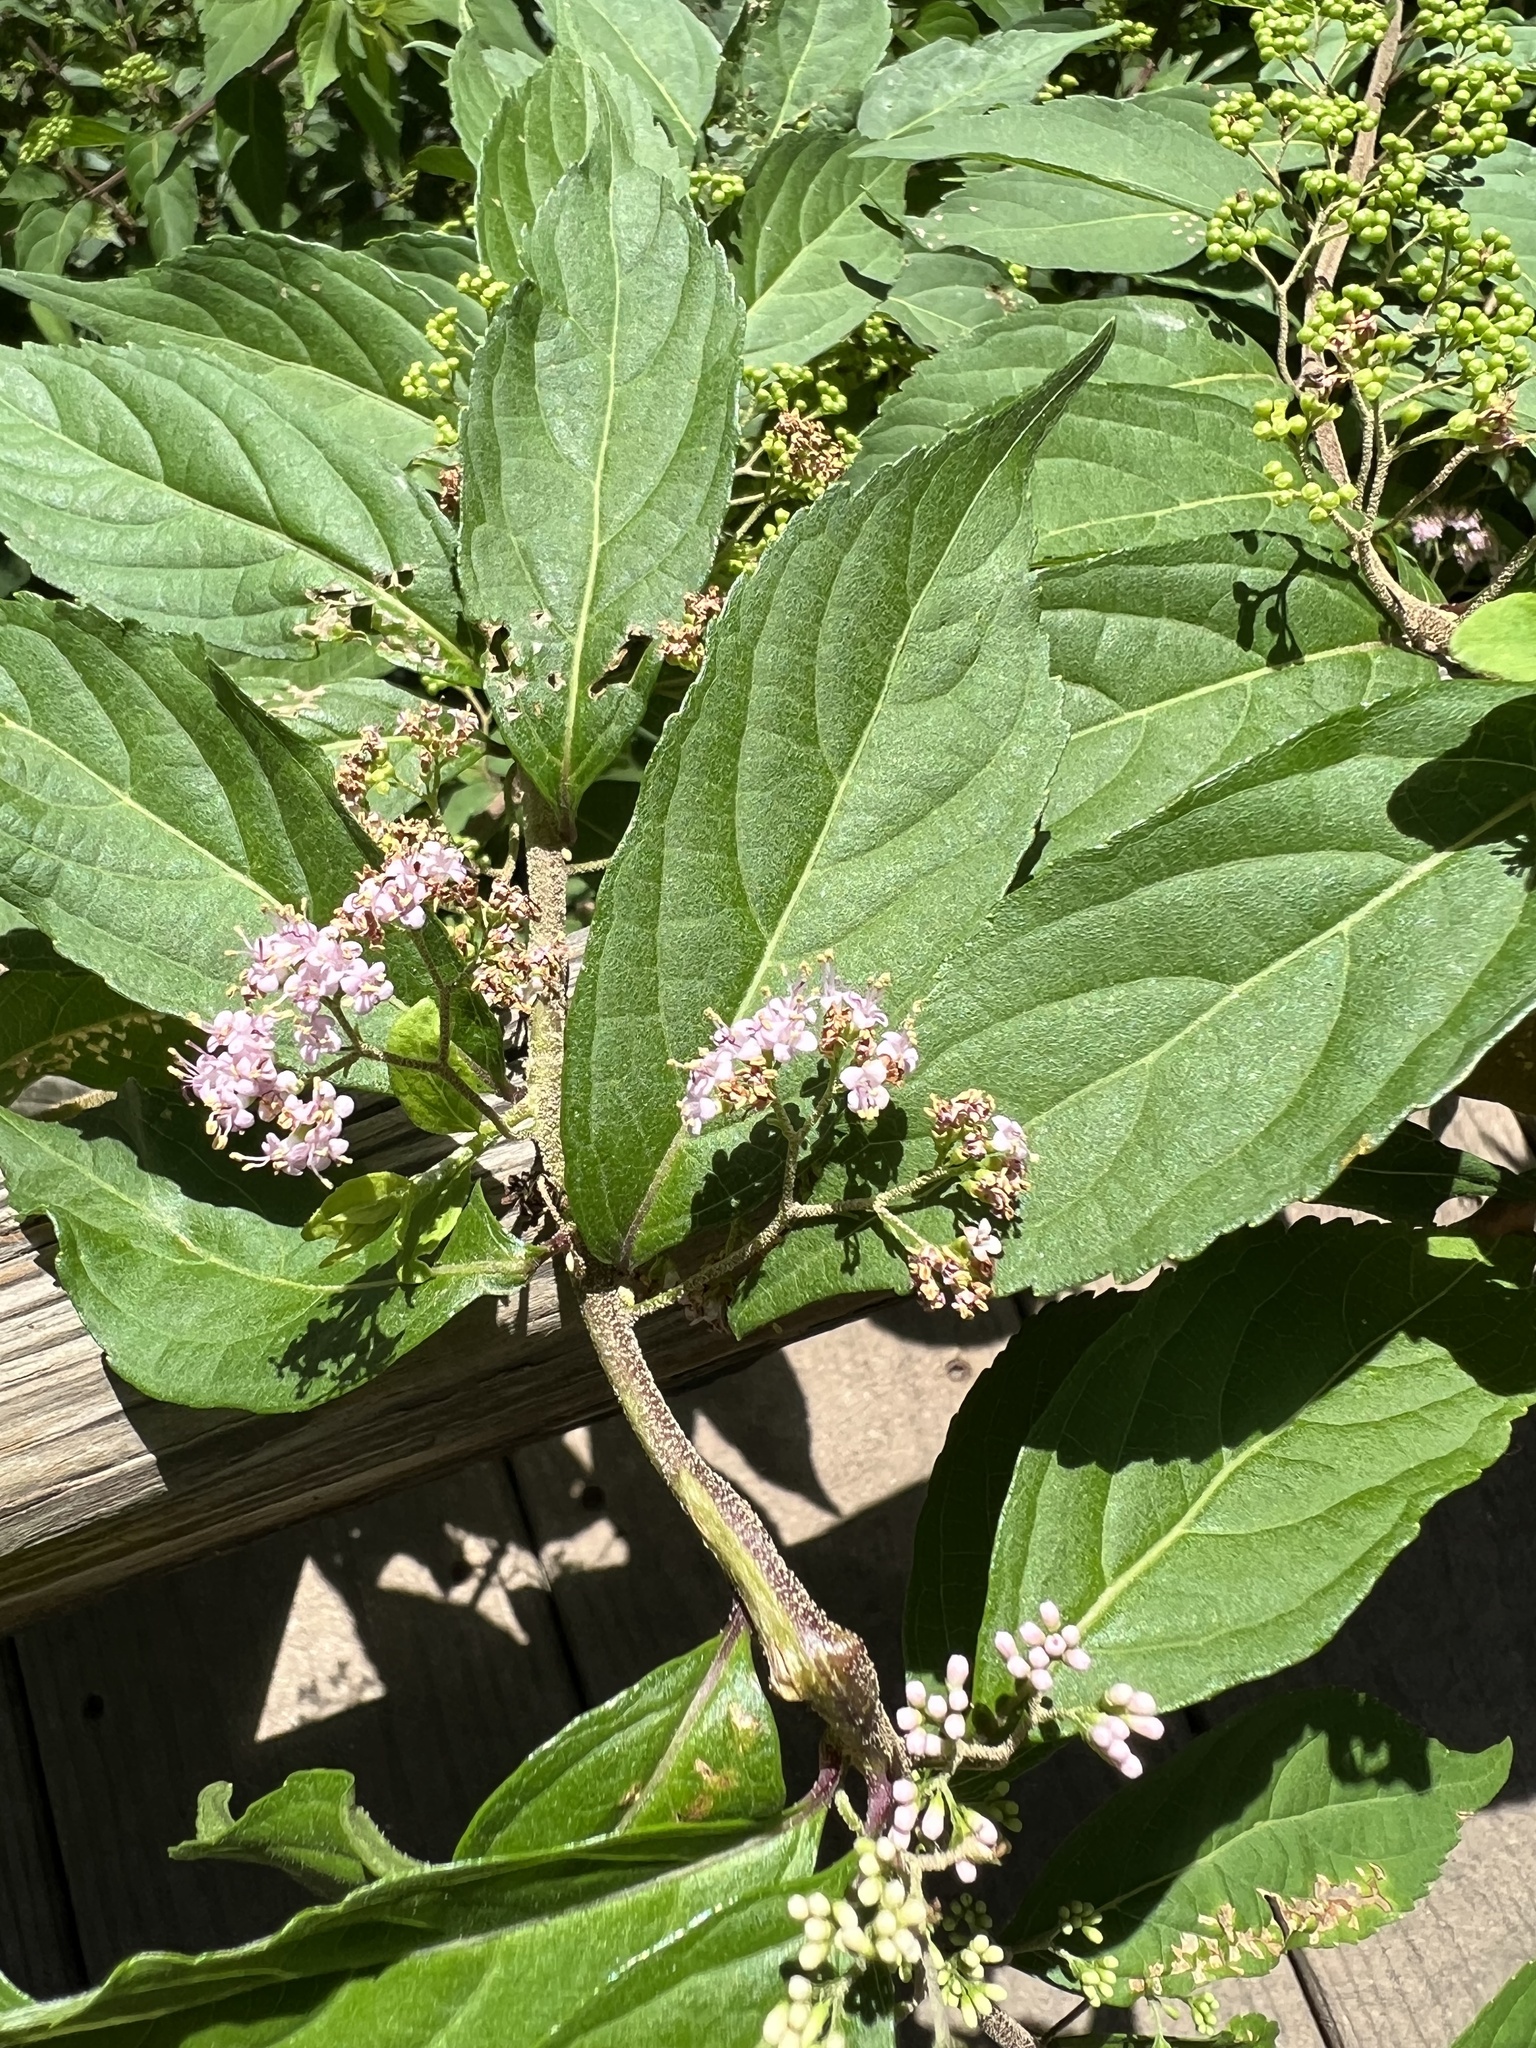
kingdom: Plantae
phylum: Tracheophyta
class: Magnoliopsida
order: Lamiales
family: Lamiaceae
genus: Callicarpa
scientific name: Callicarpa dichotoma
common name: Purple beauty-berry
